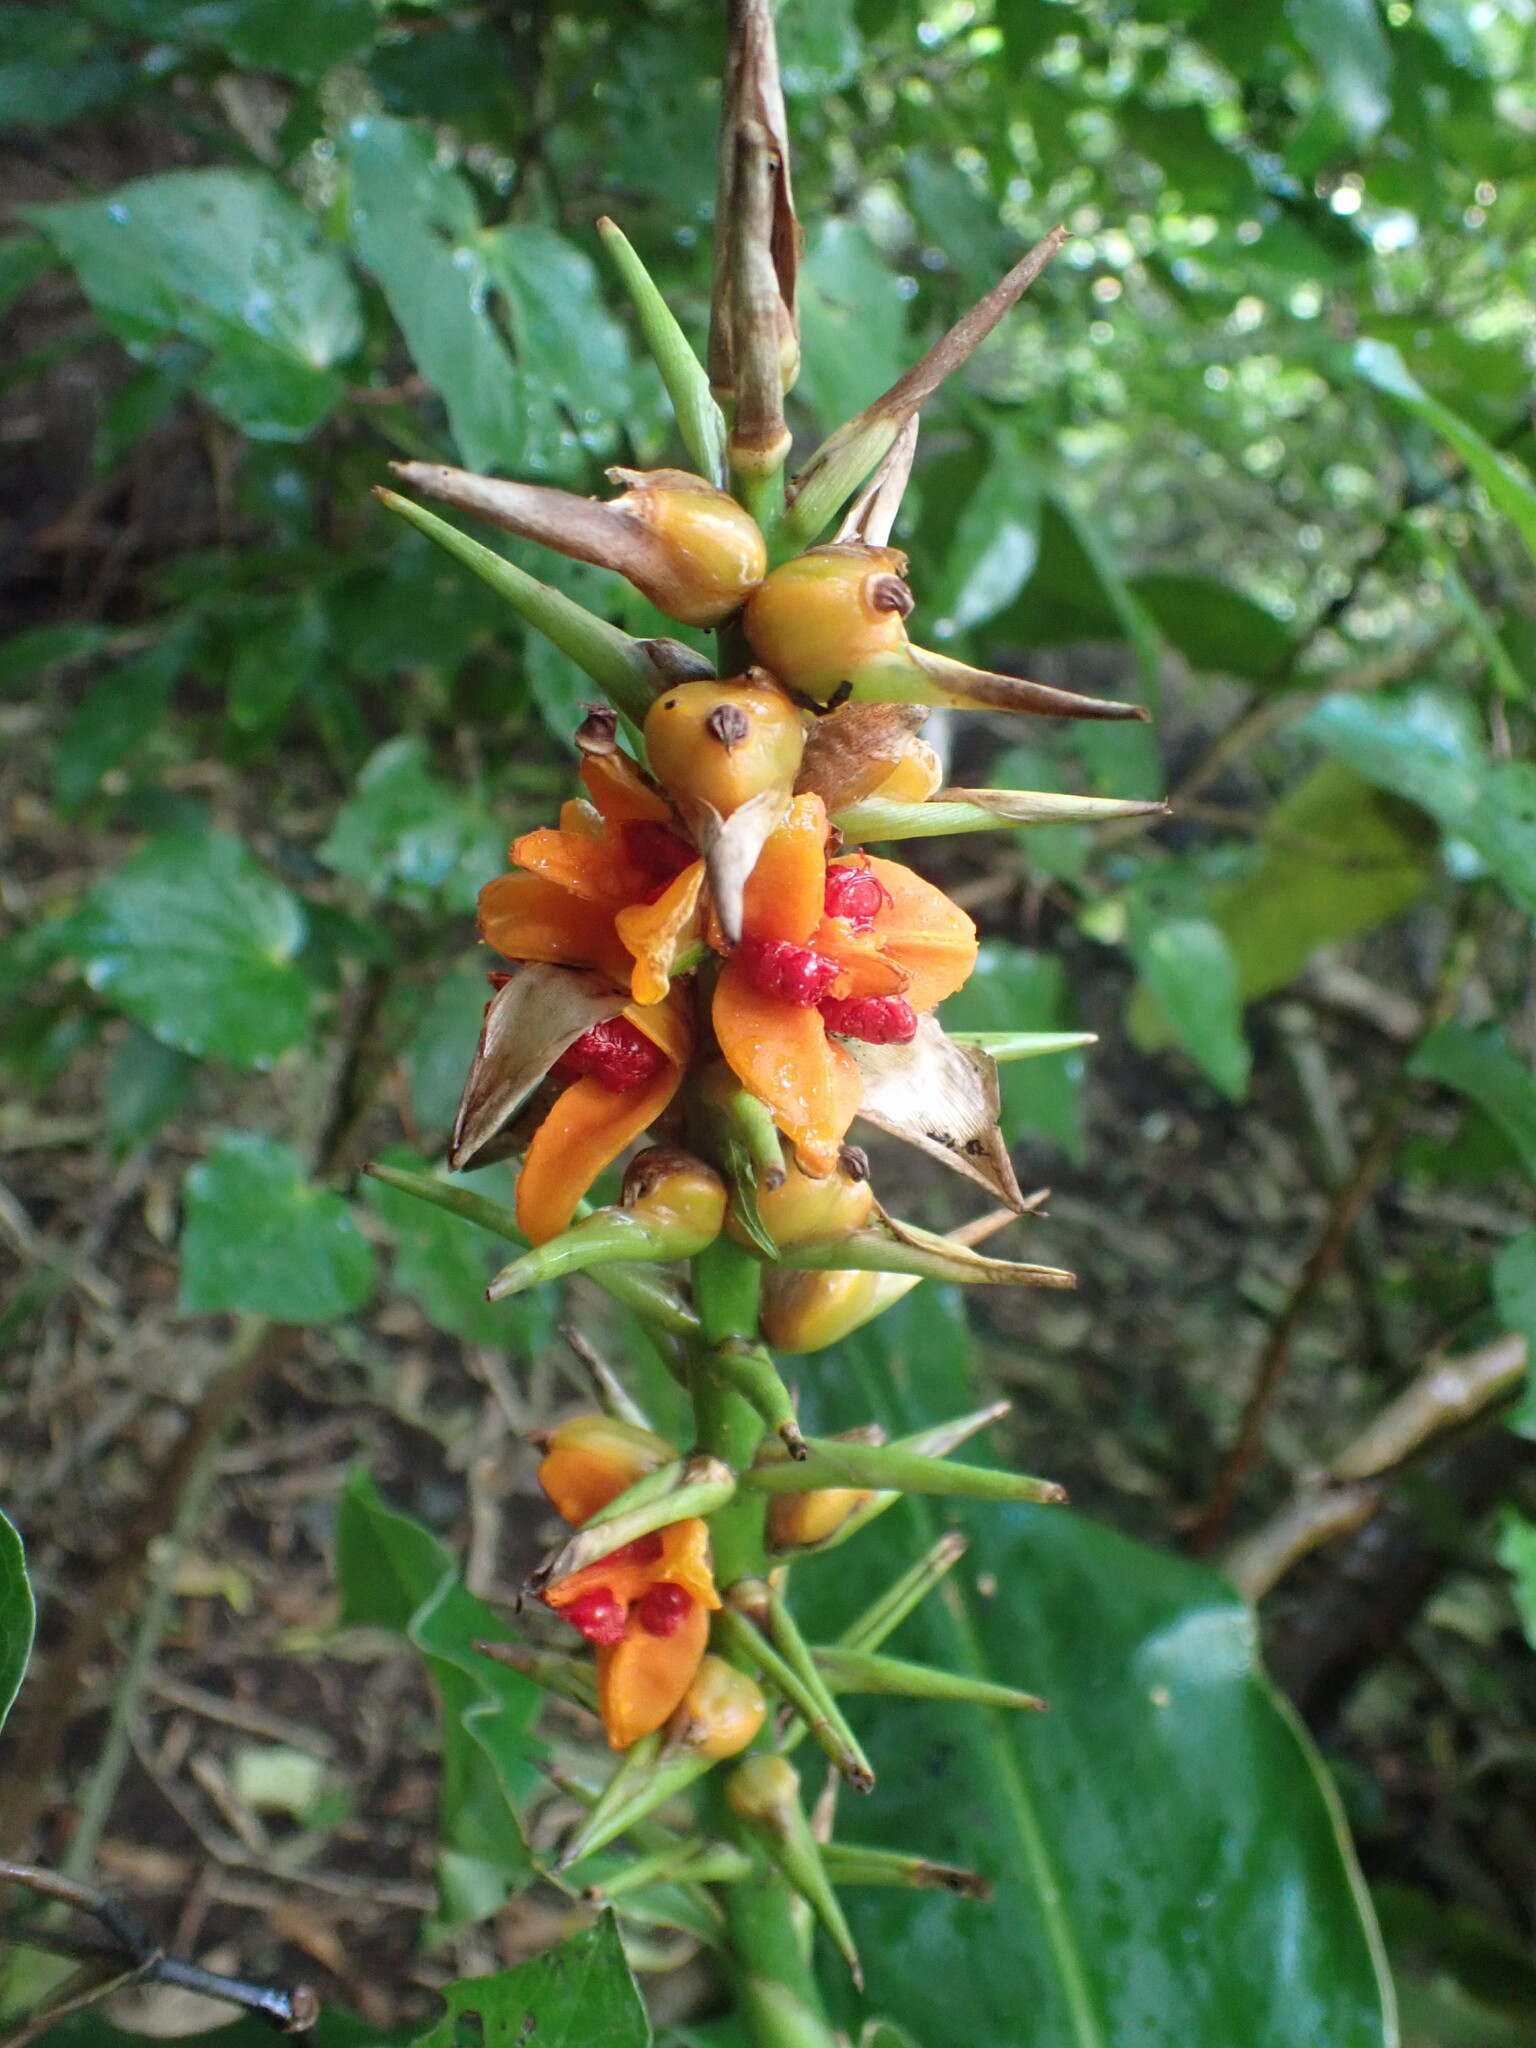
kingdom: Plantae
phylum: Tracheophyta
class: Liliopsida
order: Zingiberales
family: Zingiberaceae
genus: Hedychium
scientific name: Hedychium gardnerianum
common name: Himalayan ginger
